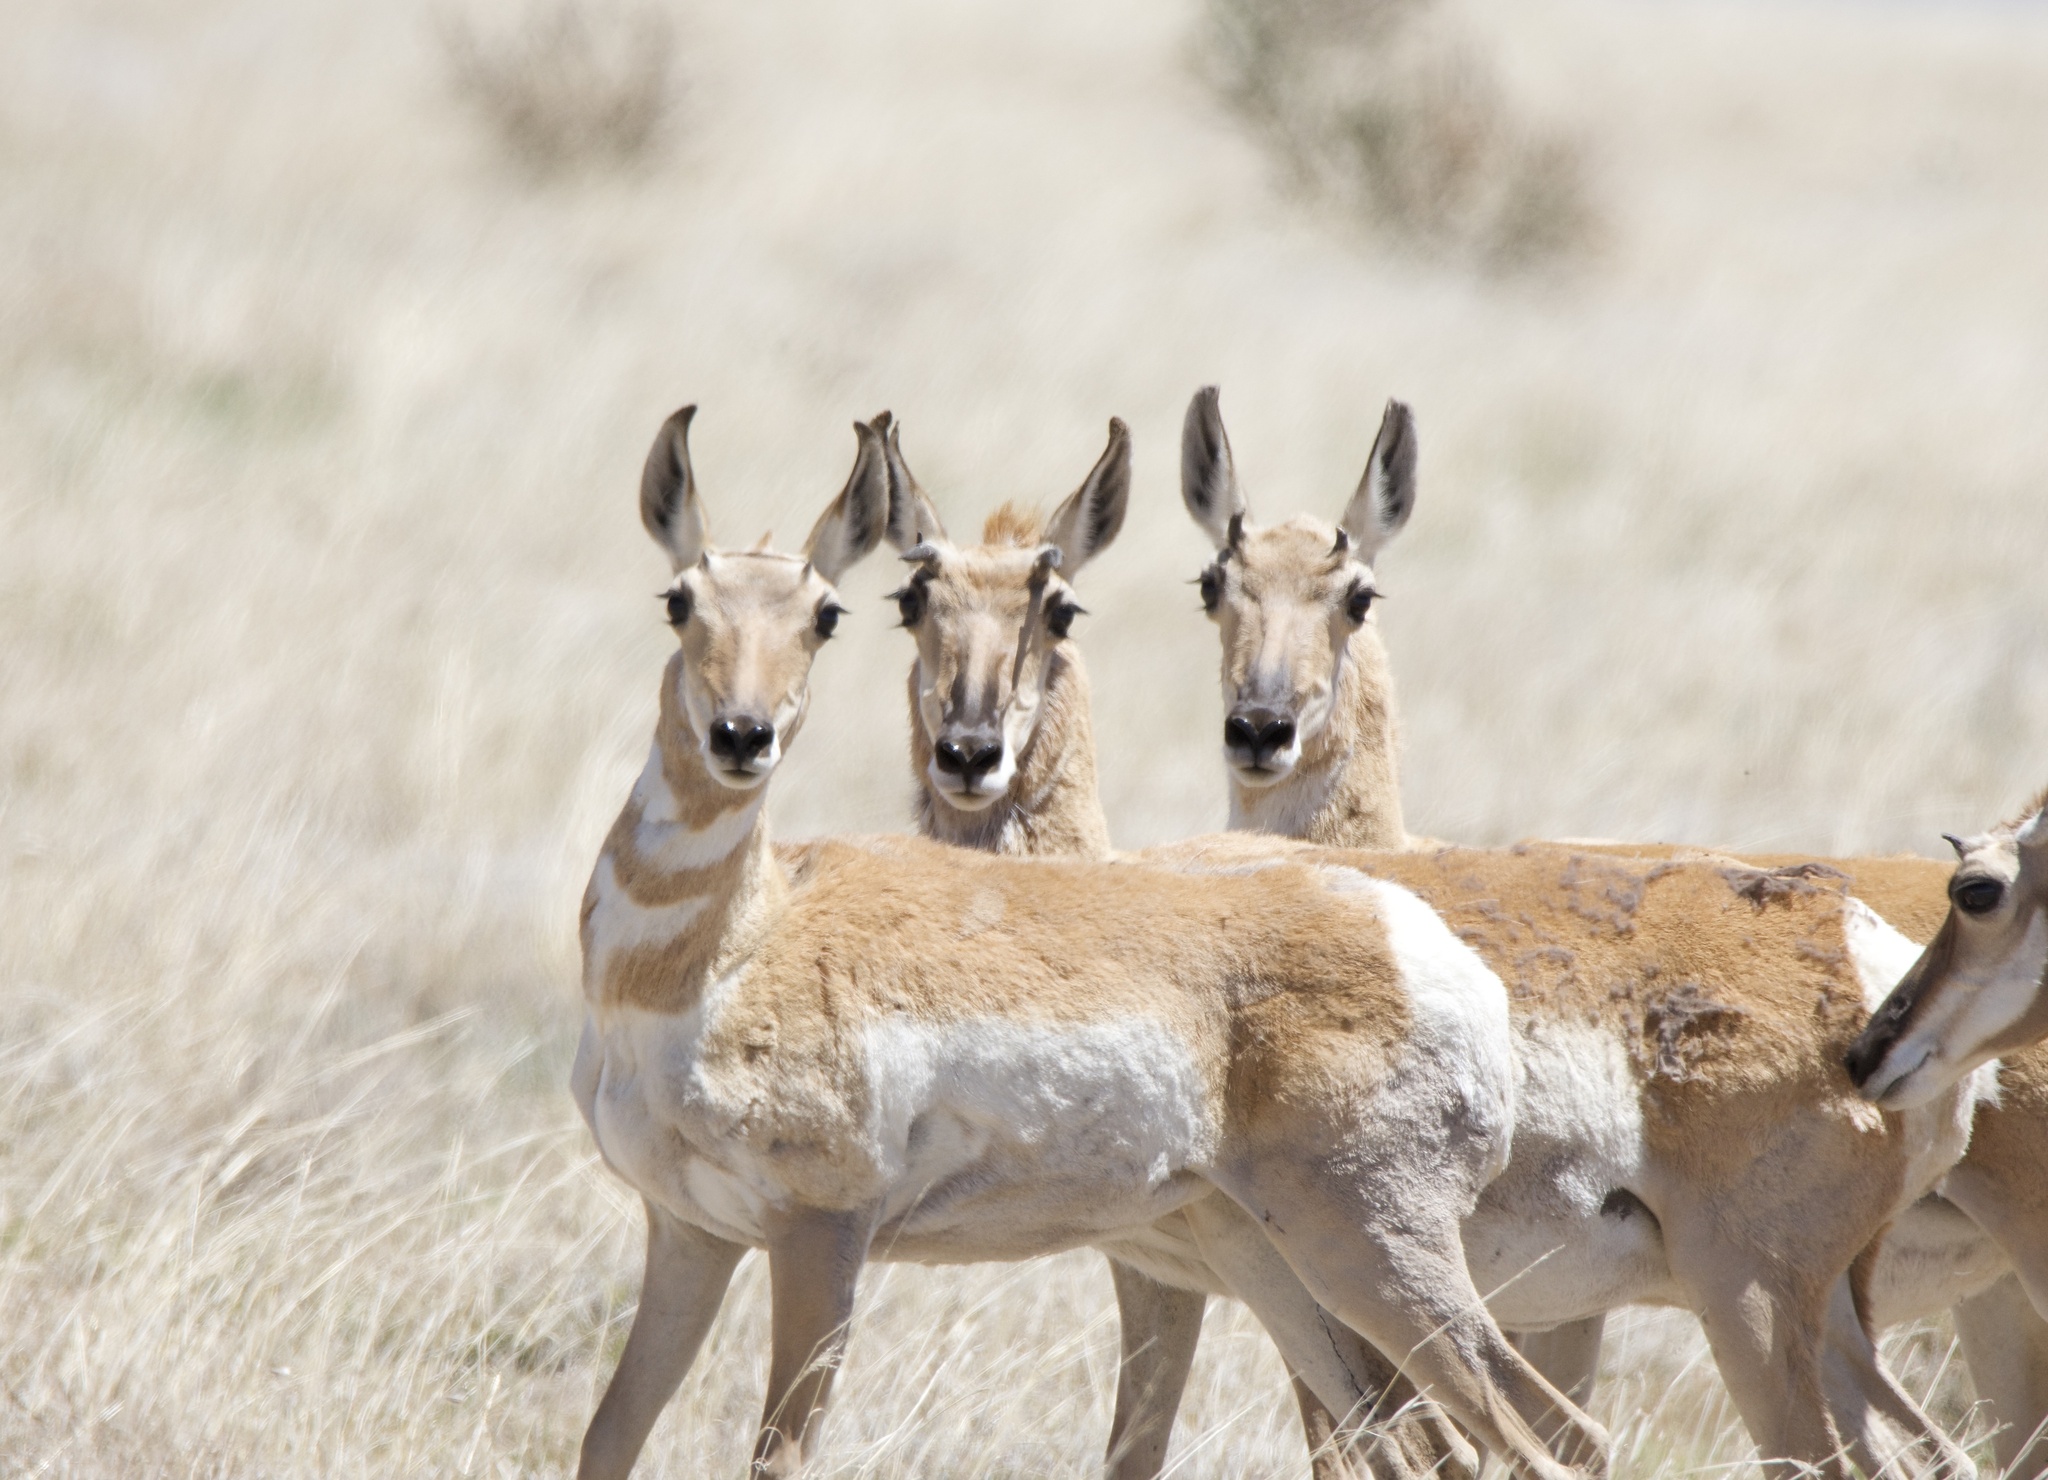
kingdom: Animalia
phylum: Chordata
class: Mammalia
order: Artiodactyla
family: Antilocapridae
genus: Antilocapra
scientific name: Antilocapra americana
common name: Pronghorn
